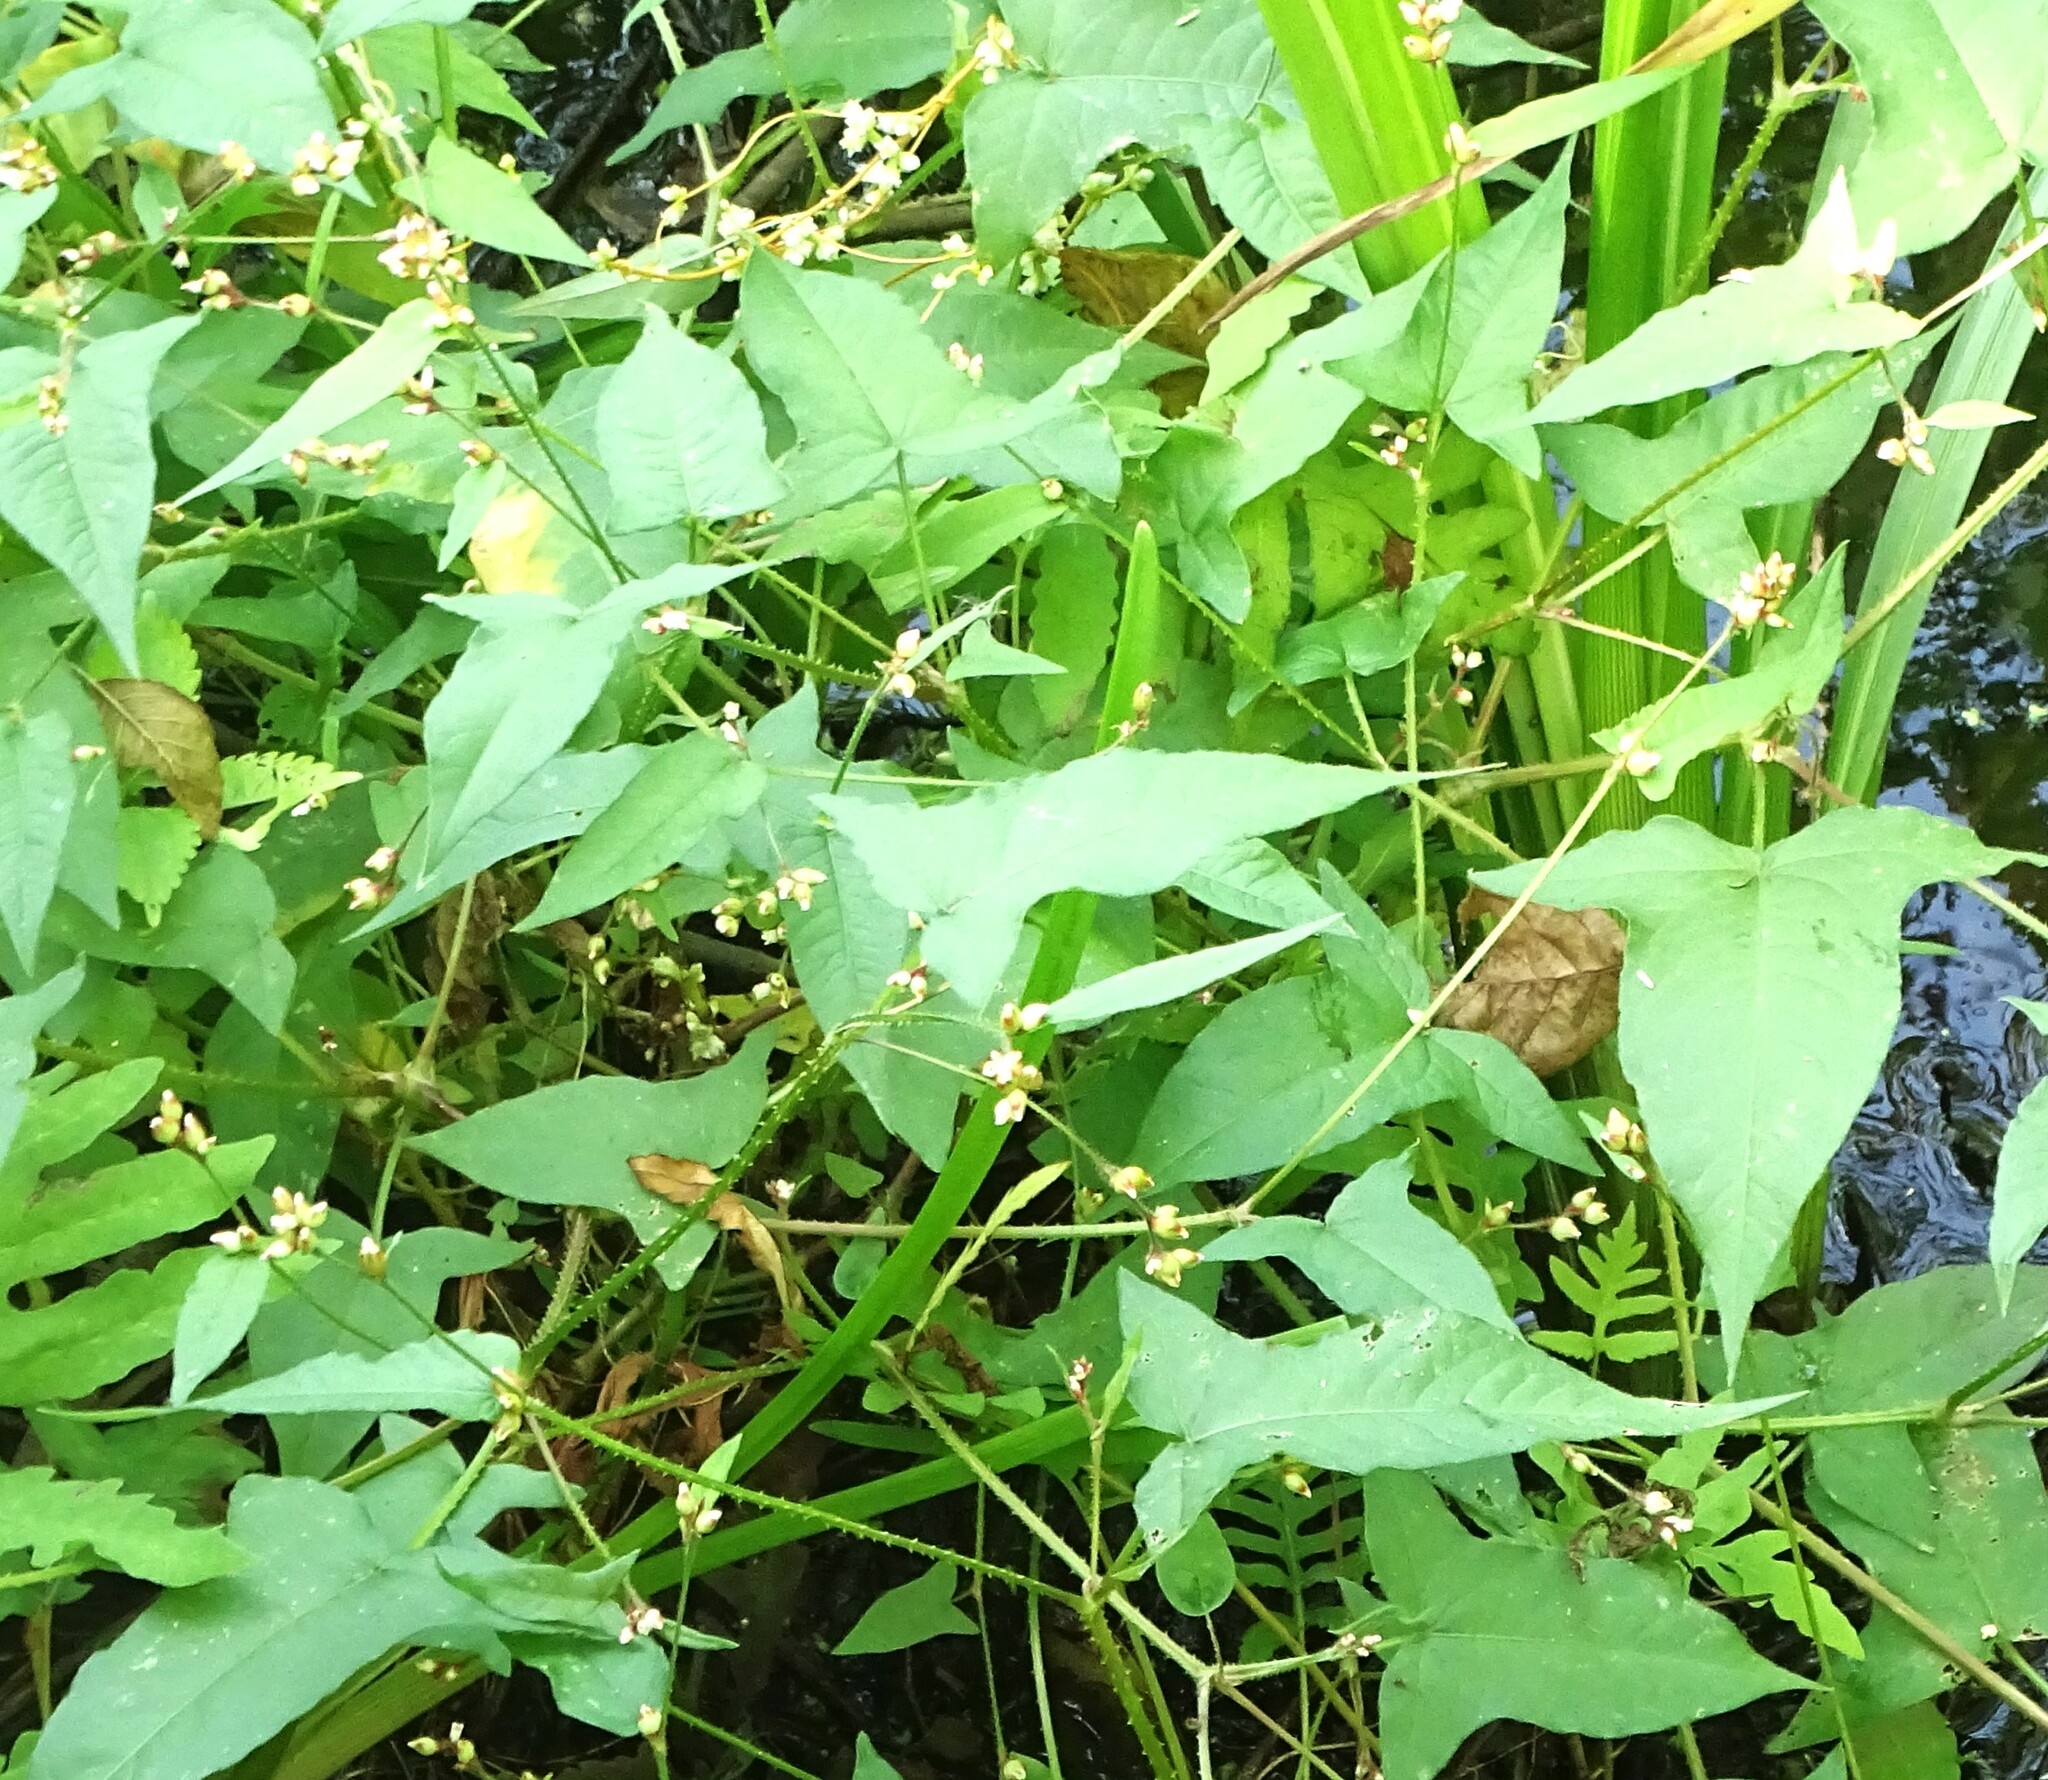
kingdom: Plantae
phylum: Tracheophyta
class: Magnoliopsida
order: Caryophyllales
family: Polygonaceae
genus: Persicaria
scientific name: Persicaria arifolia
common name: Halberd-leaved tear-thumb
